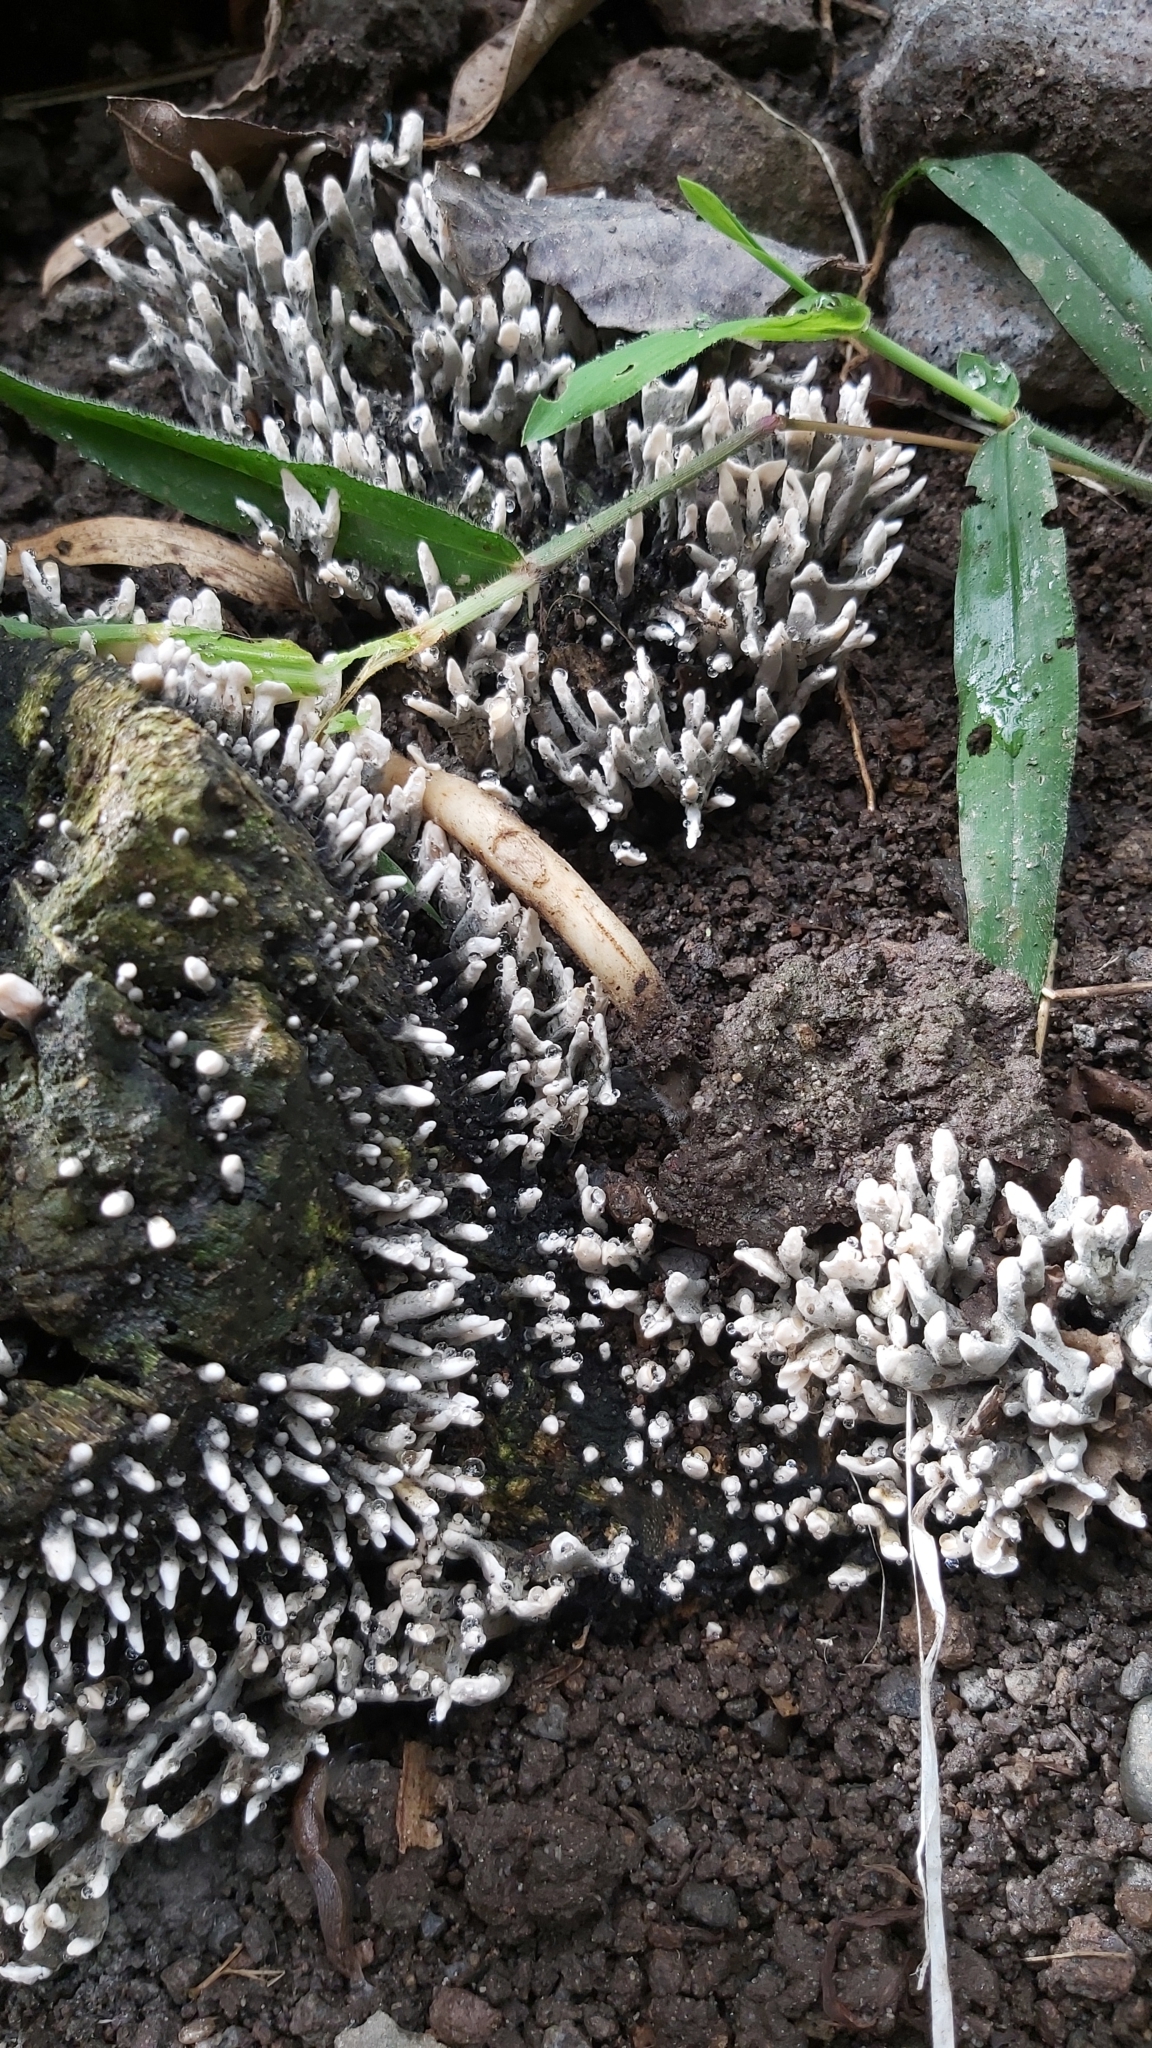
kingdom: Fungi
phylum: Ascomycota
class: Sordariomycetes
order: Xylariales
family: Xylariaceae
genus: Xylaria
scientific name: Xylaria hypoxylon
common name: Candle-snuff fungus
